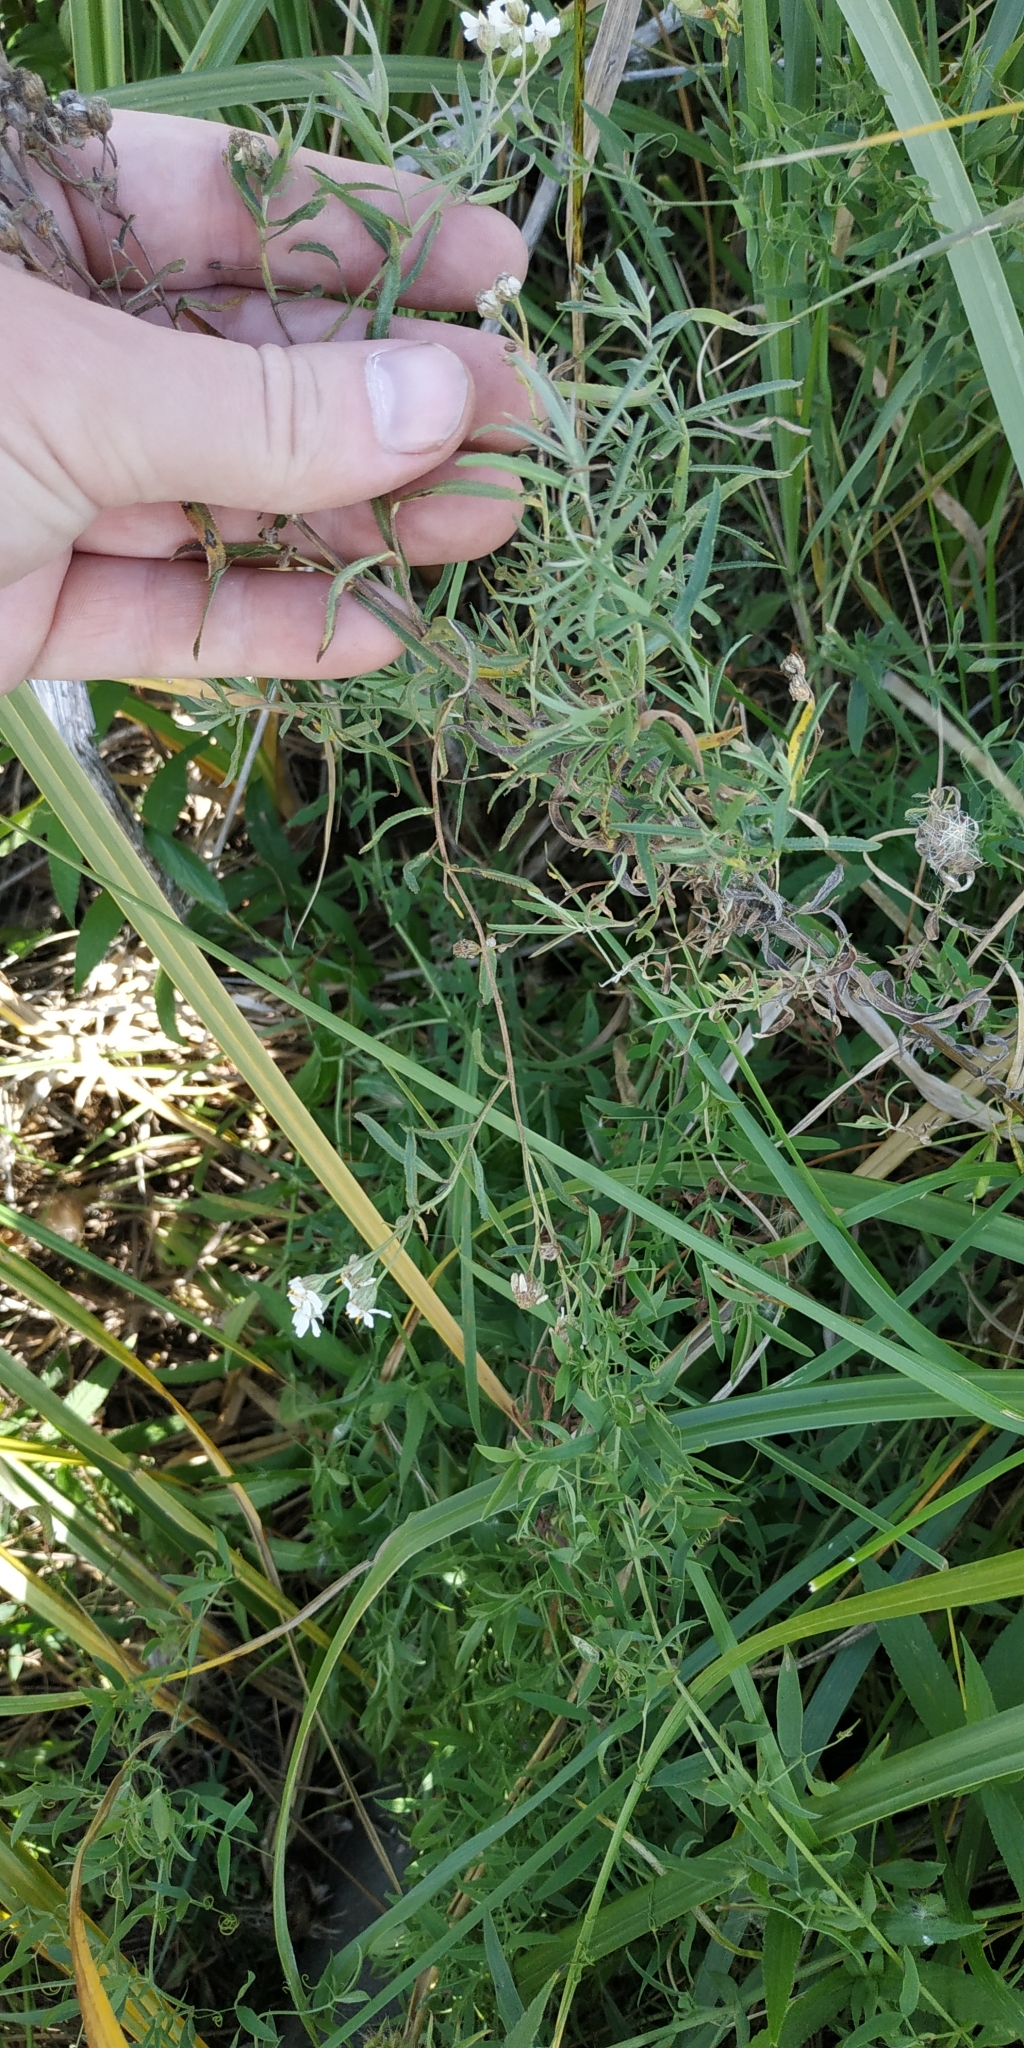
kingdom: Plantae
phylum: Tracheophyta
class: Magnoliopsida
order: Asterales
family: Asteraceae
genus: Achillea
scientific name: Achillea salicifolia
